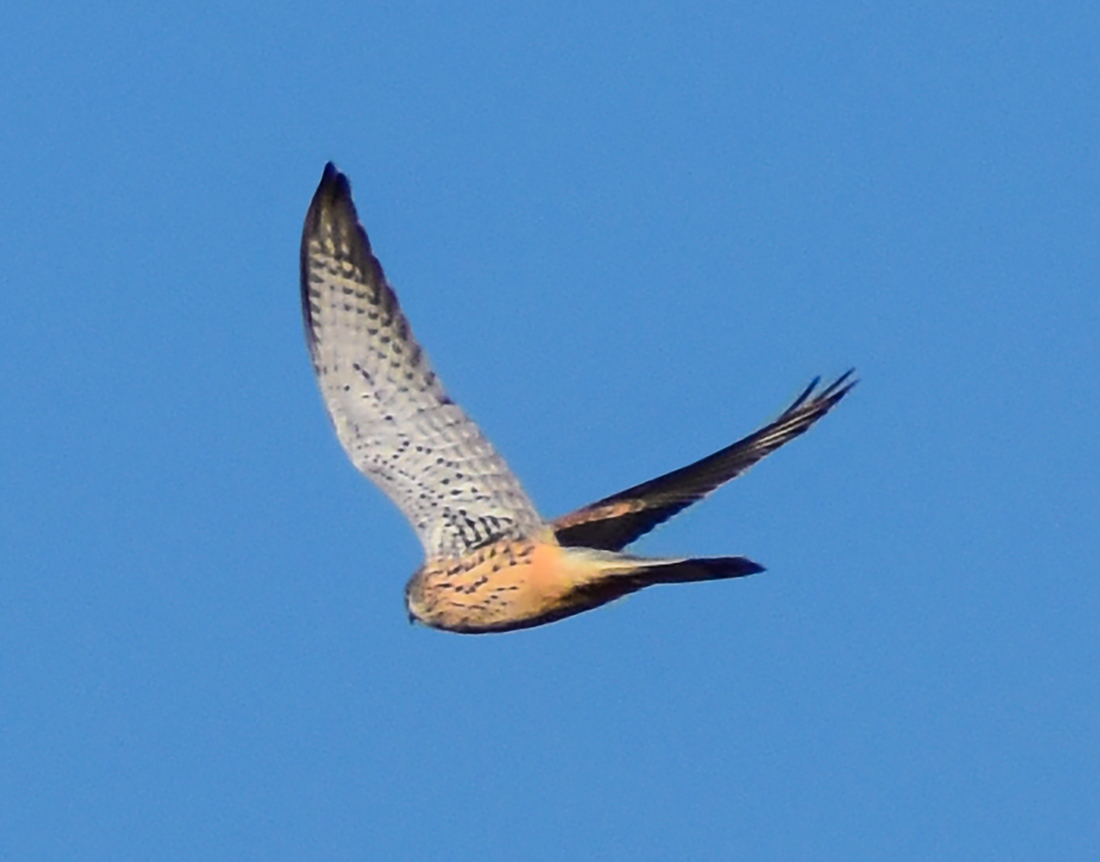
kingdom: Animalia
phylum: Chordata
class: Aves
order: Falconiformes
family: Falconidae
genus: Falco
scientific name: Falco tinnunculus
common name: Common kestrel
